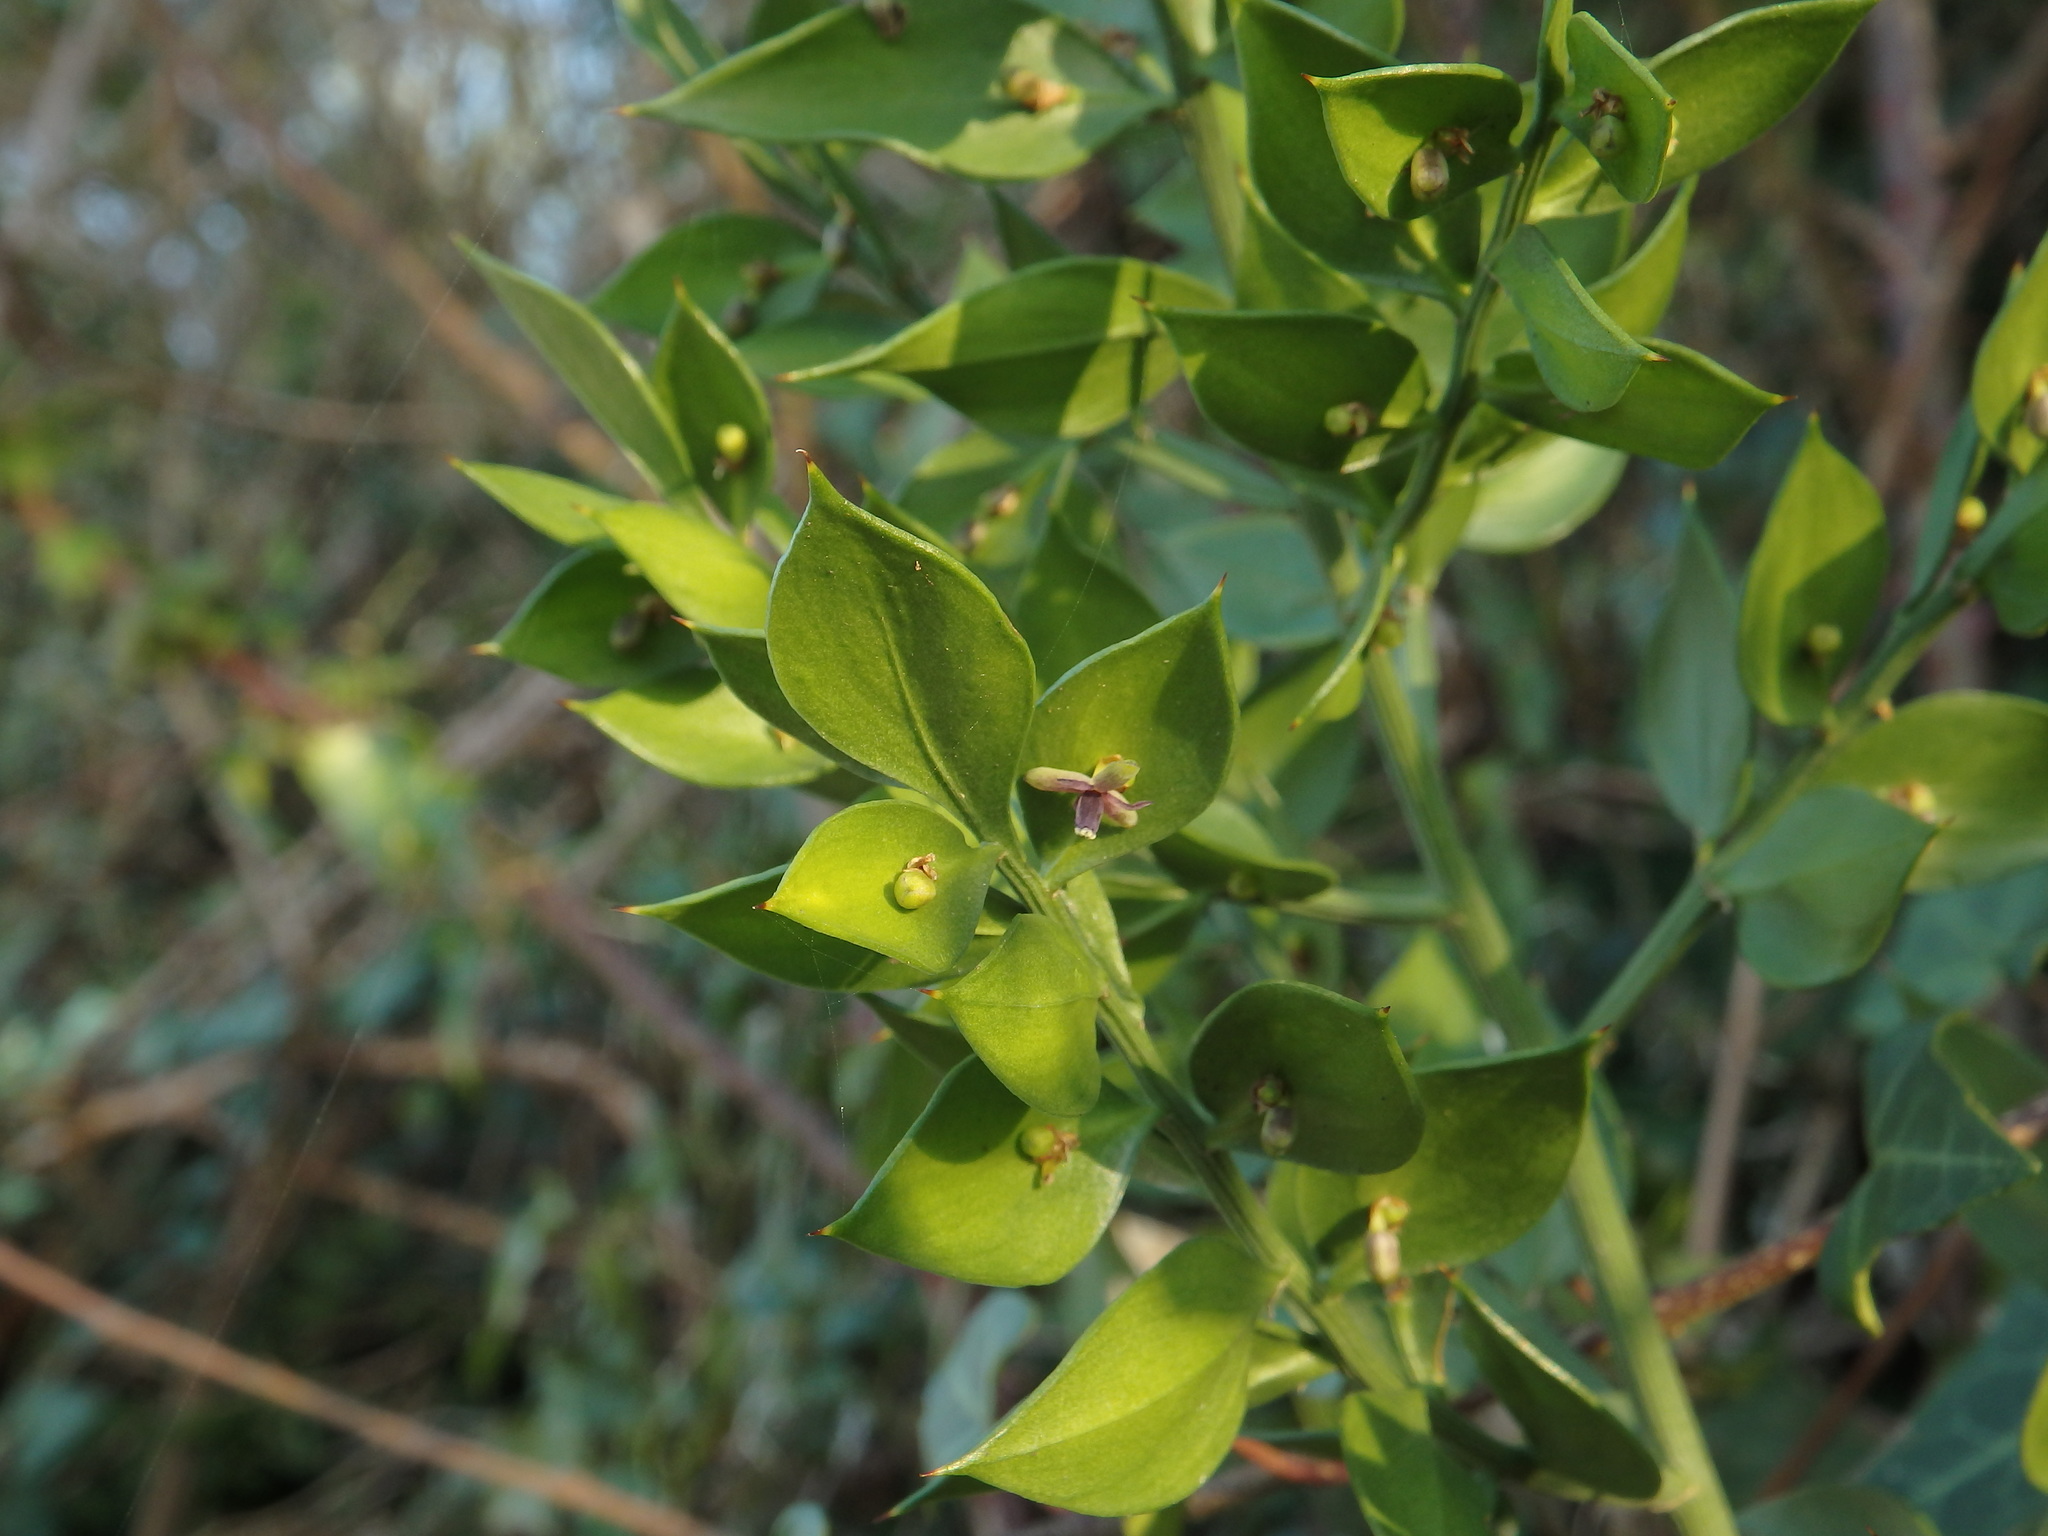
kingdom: Plantae
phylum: Tracheophyta
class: Liliopsida
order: Asparagales
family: Asparagaceae
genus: Ruscus
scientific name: Ruscus aculeatus
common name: Butcher's-broom
